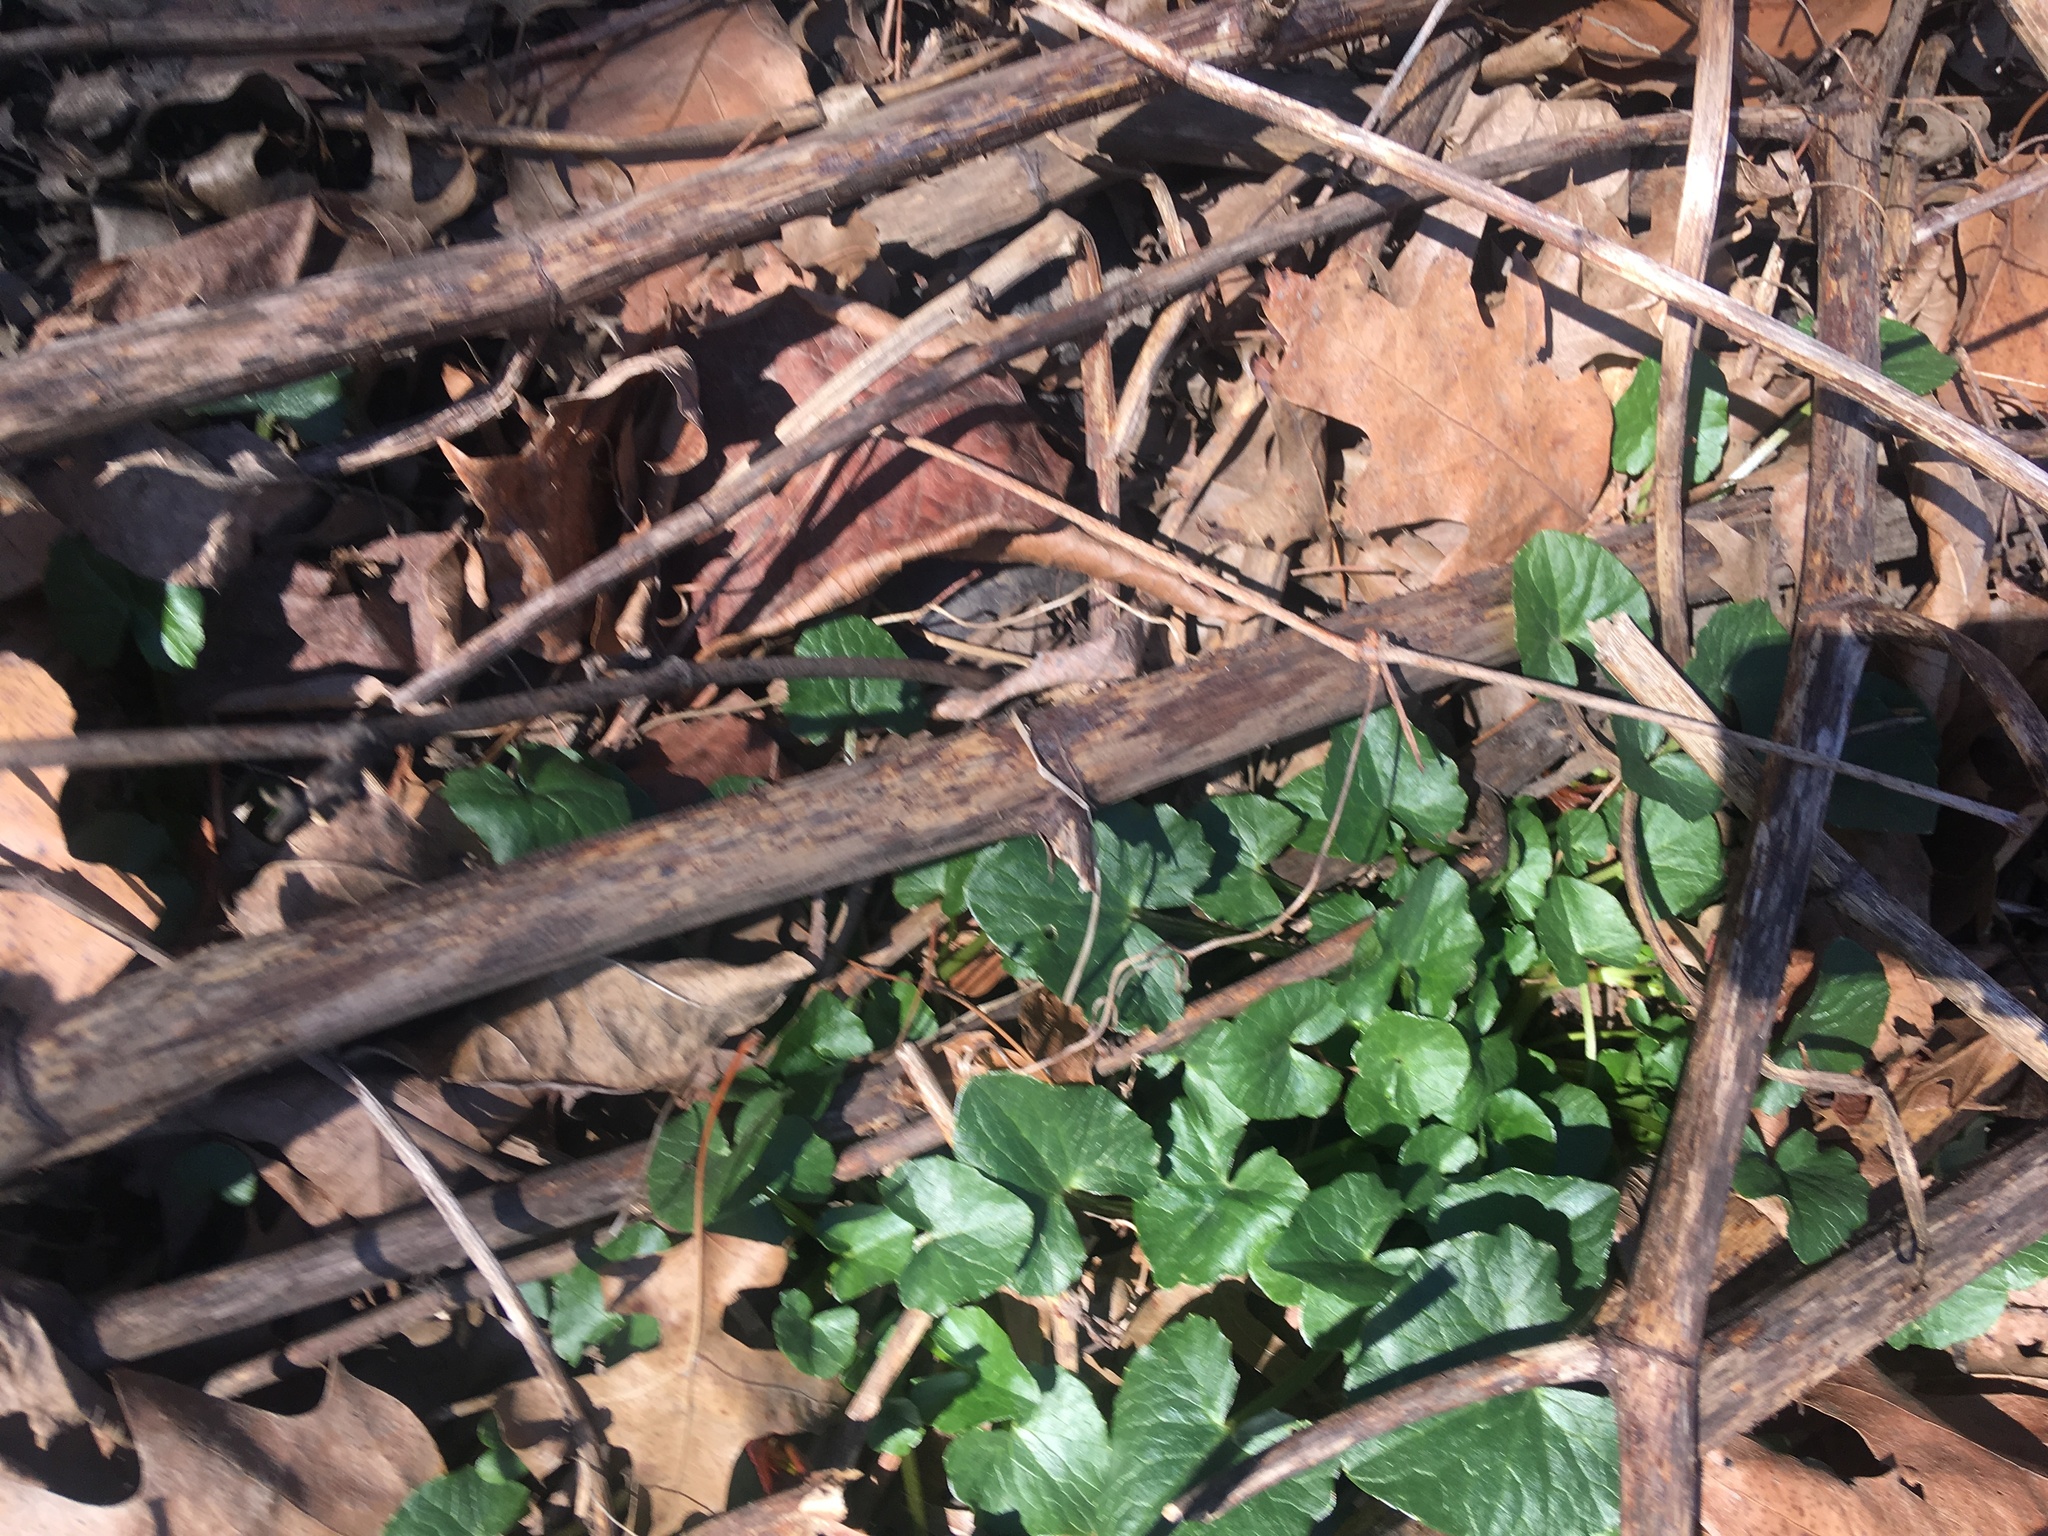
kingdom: Plantae
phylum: Tracheophyta
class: Magnoliopsida
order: Ranunculales
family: Ranunculaceae
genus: Ficaria
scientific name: Ficaria verna
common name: Lesser celandine
